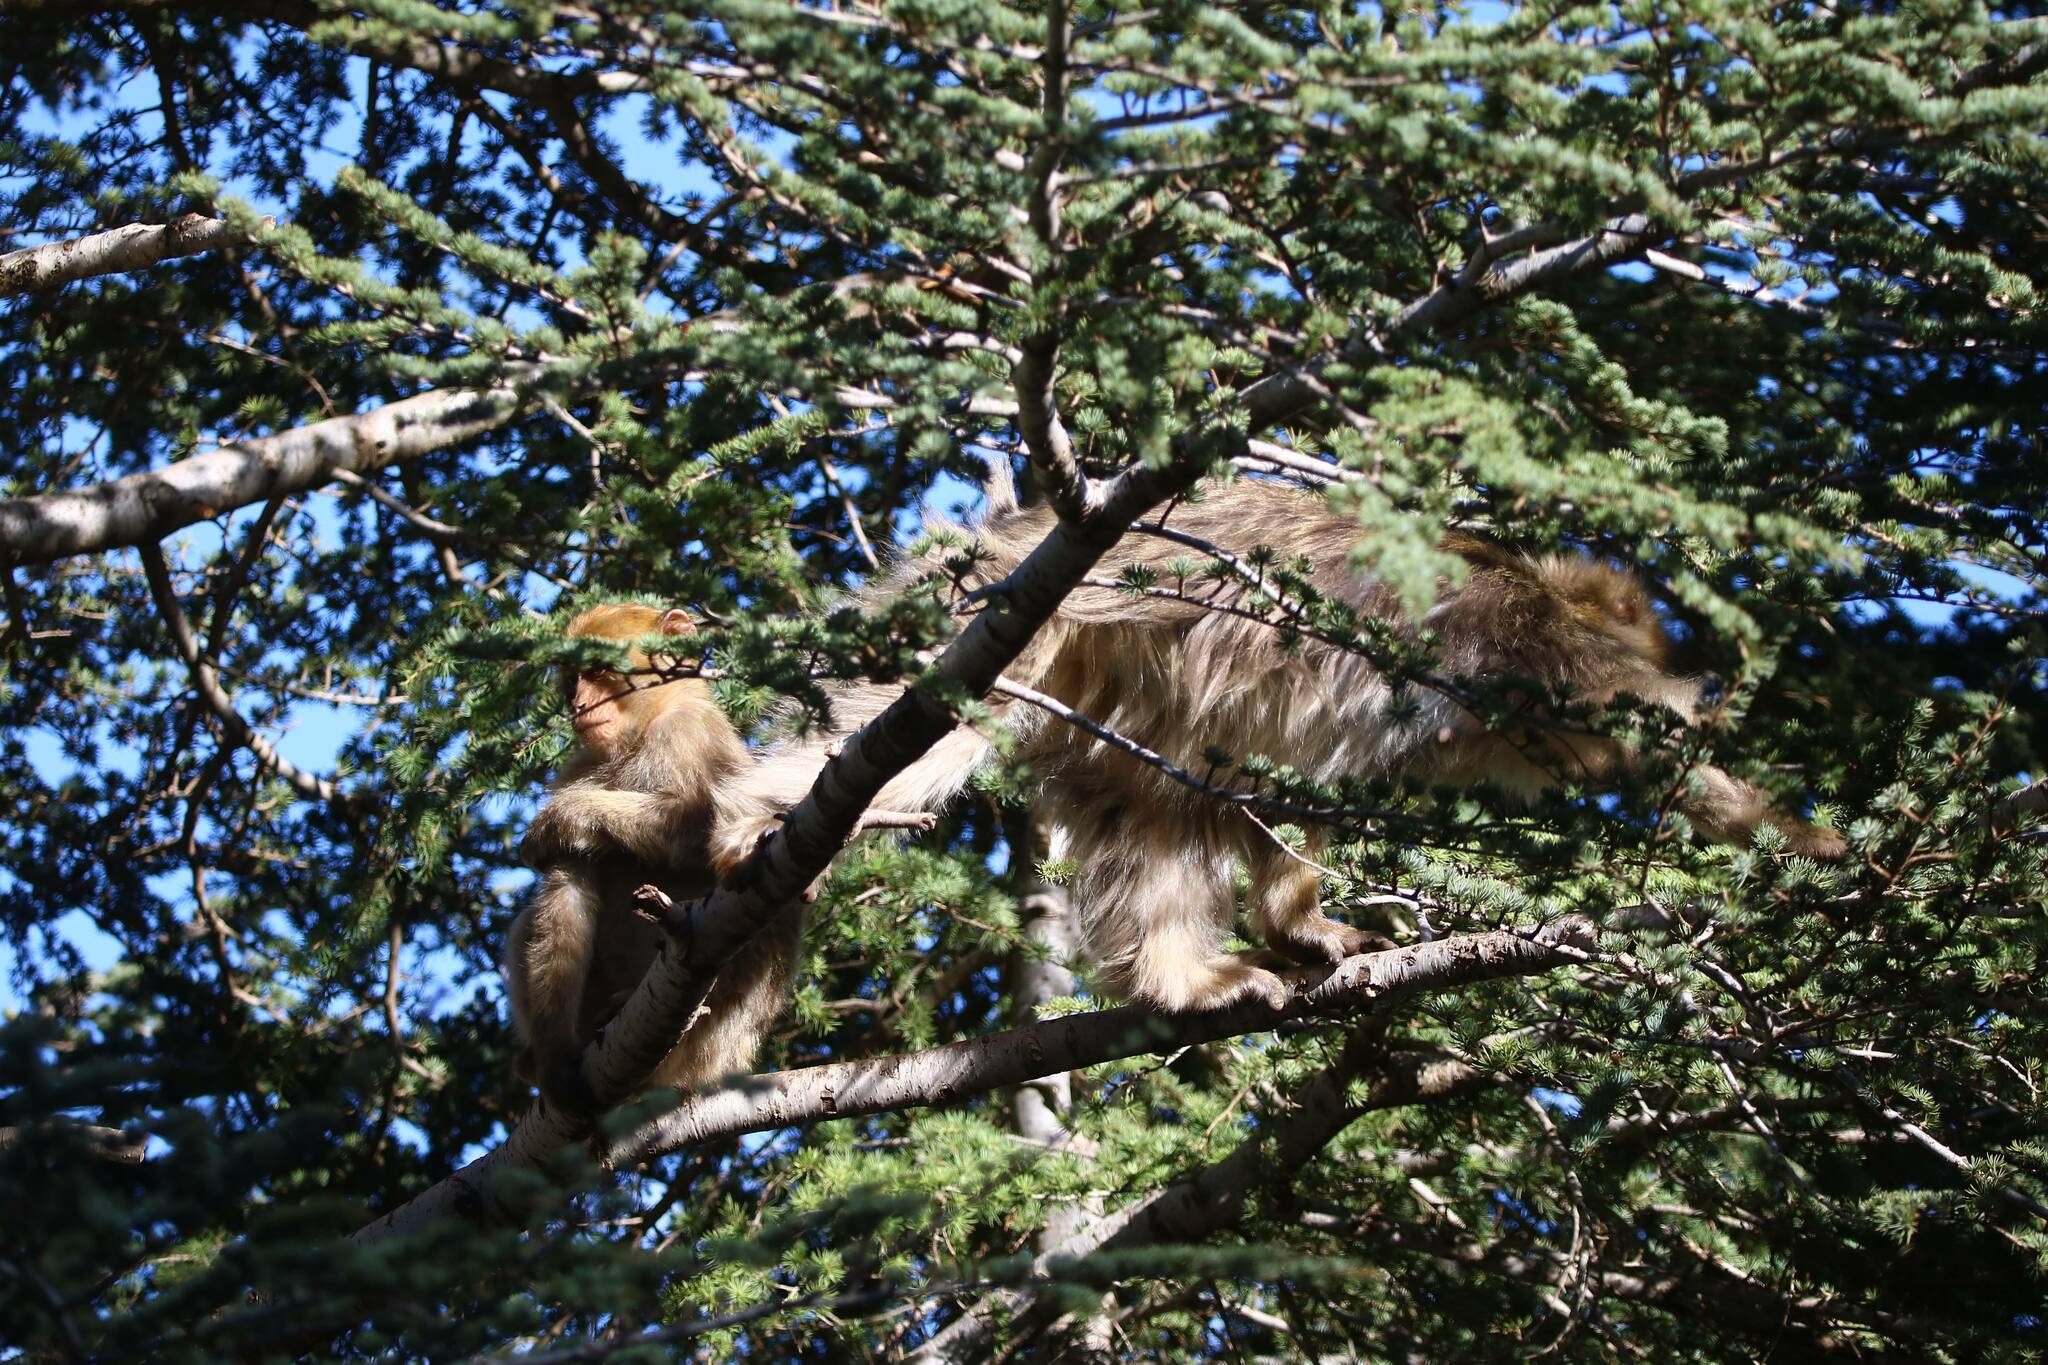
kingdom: Animalia
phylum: Chordata
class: Mammalia
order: Primates
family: Cercopithecidae
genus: Macaca
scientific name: Macaca sylvanus
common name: Barbary macaque
